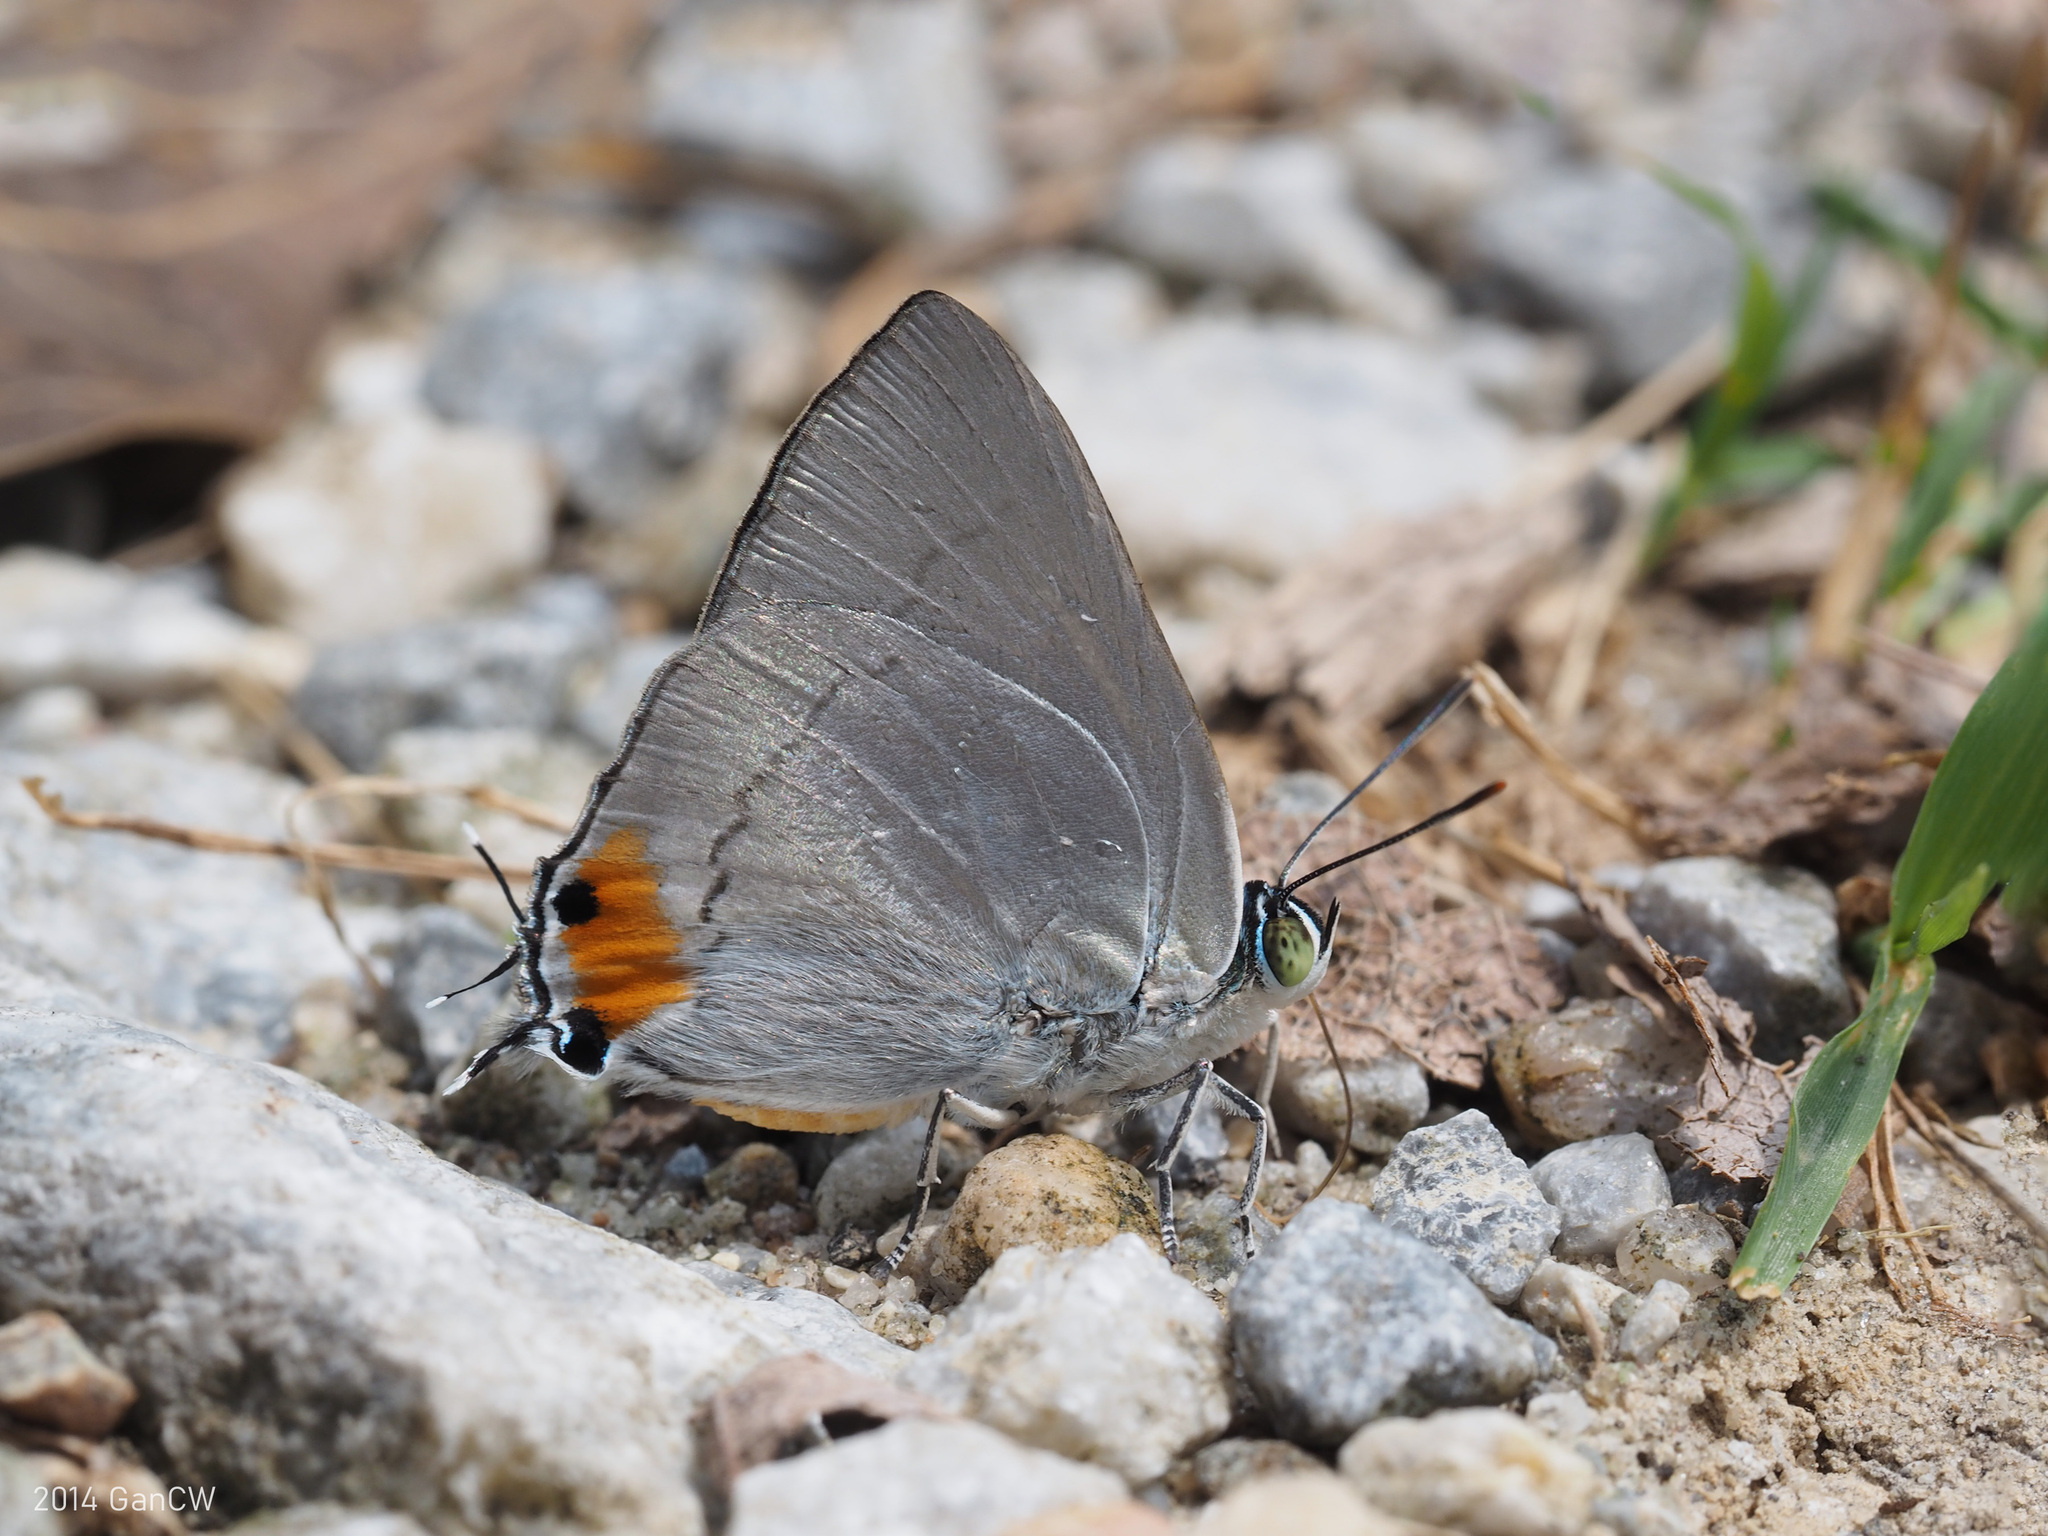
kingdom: Animalia
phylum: Arthropoda
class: Insecta
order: Lepidoptera
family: Lycaenidae
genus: Ancema
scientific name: Ancema blanka
